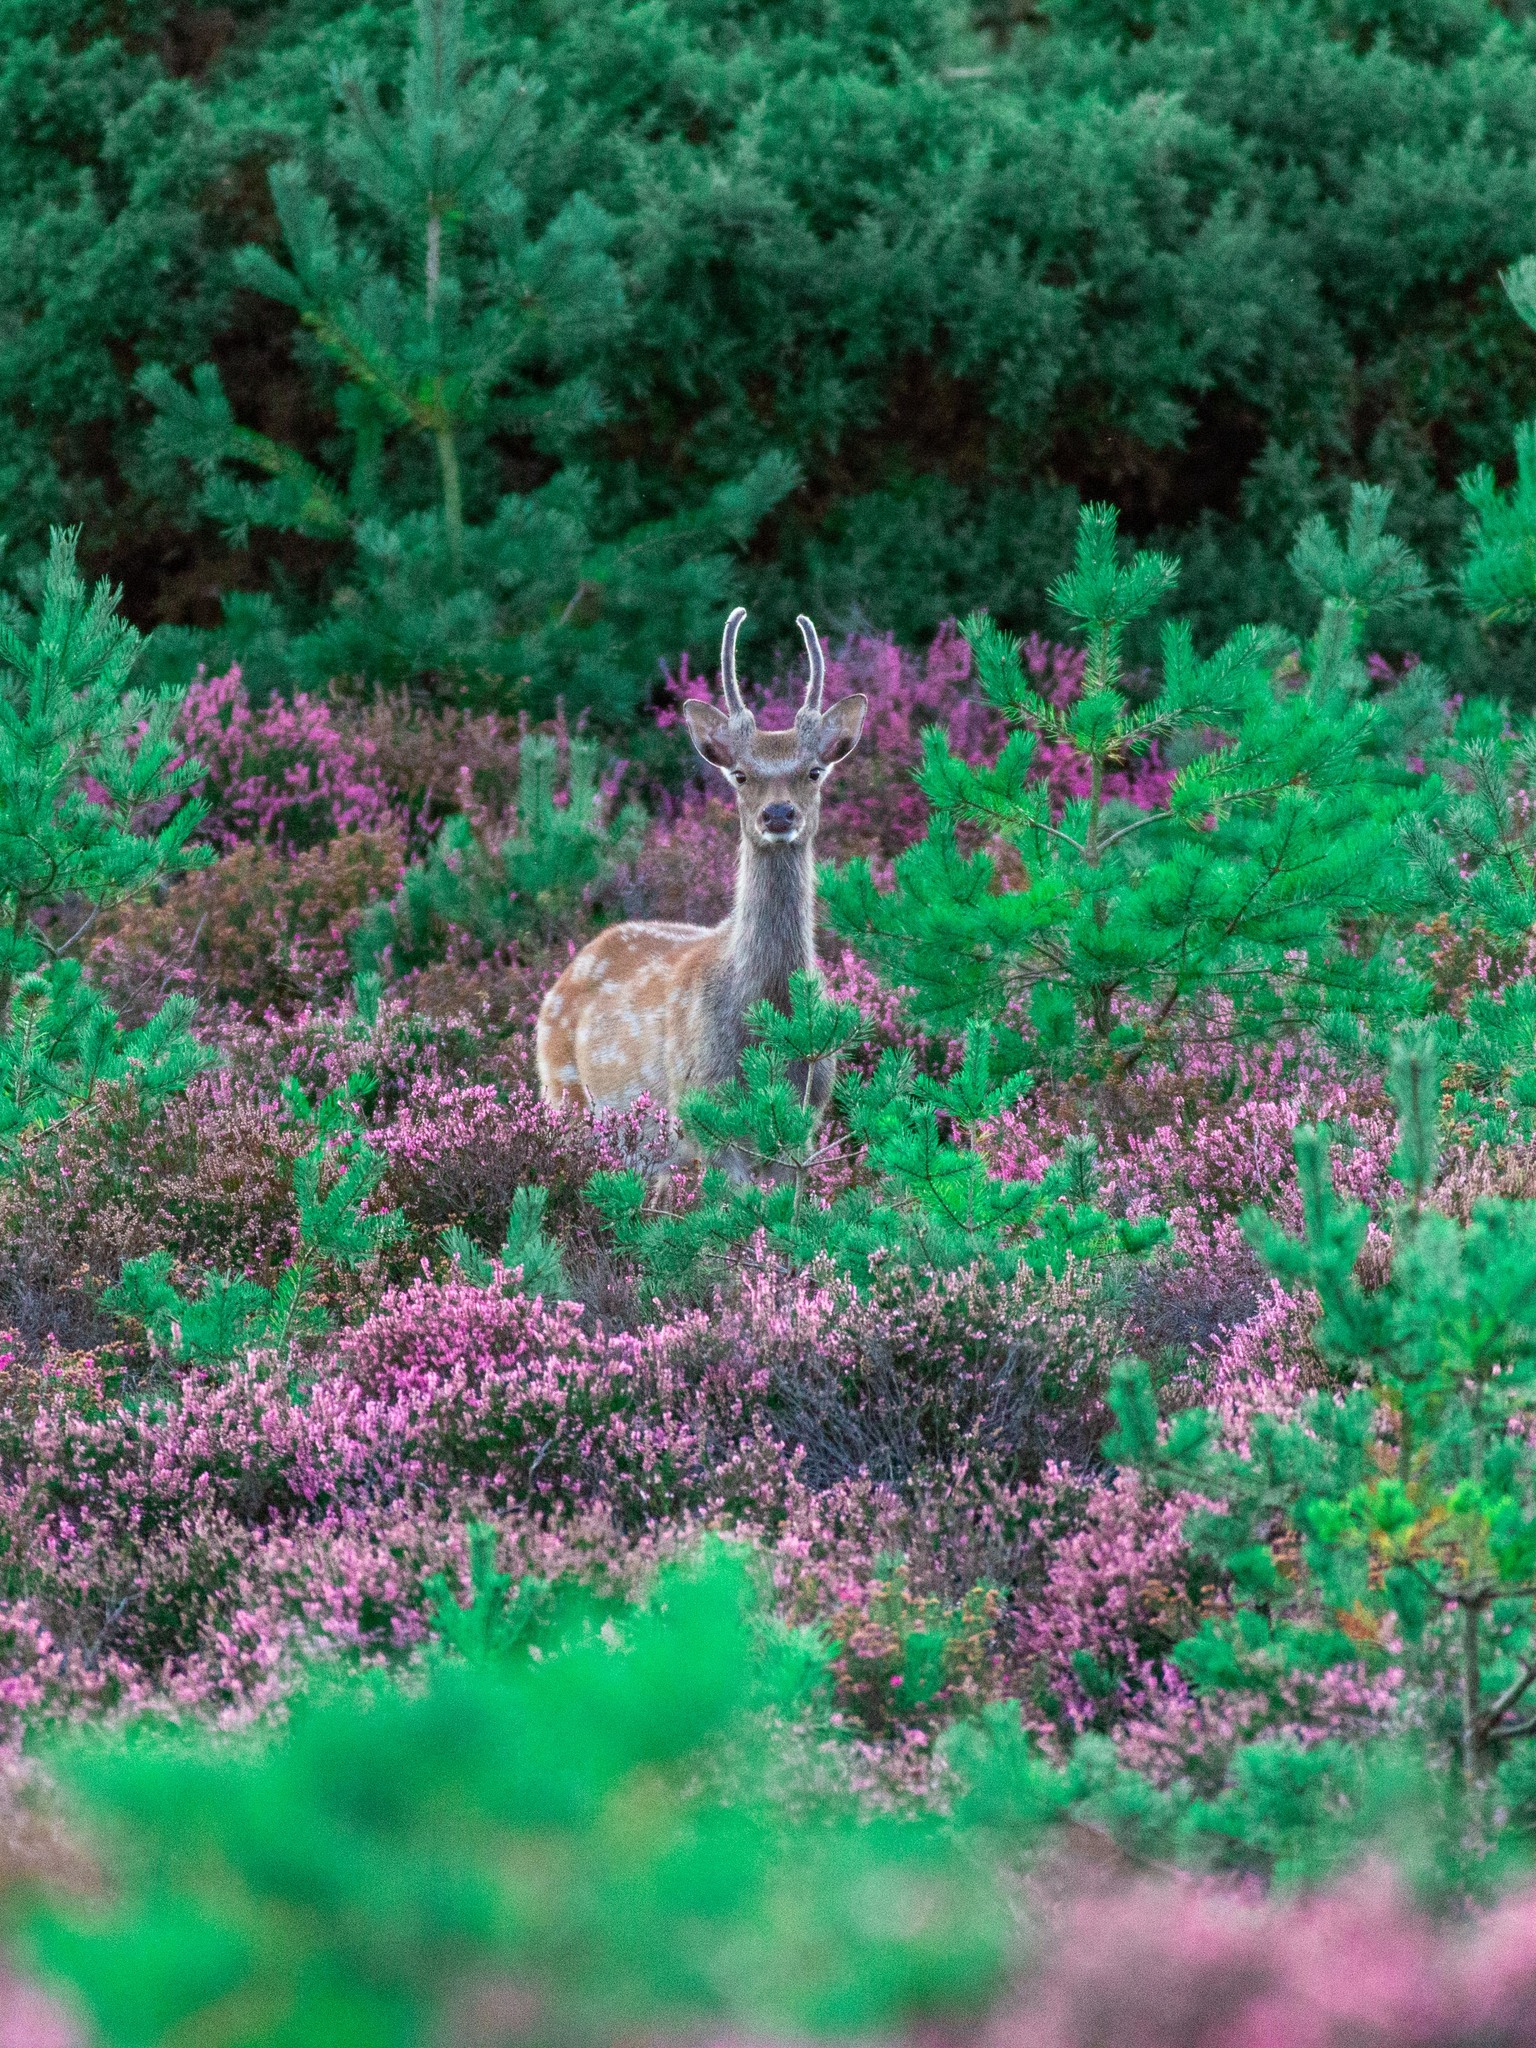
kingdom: Animalia
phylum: Chordata
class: Mammalia
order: Artiodactyla
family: Cervidae
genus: Cervus
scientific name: Cervus nippon
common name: Sika deer
